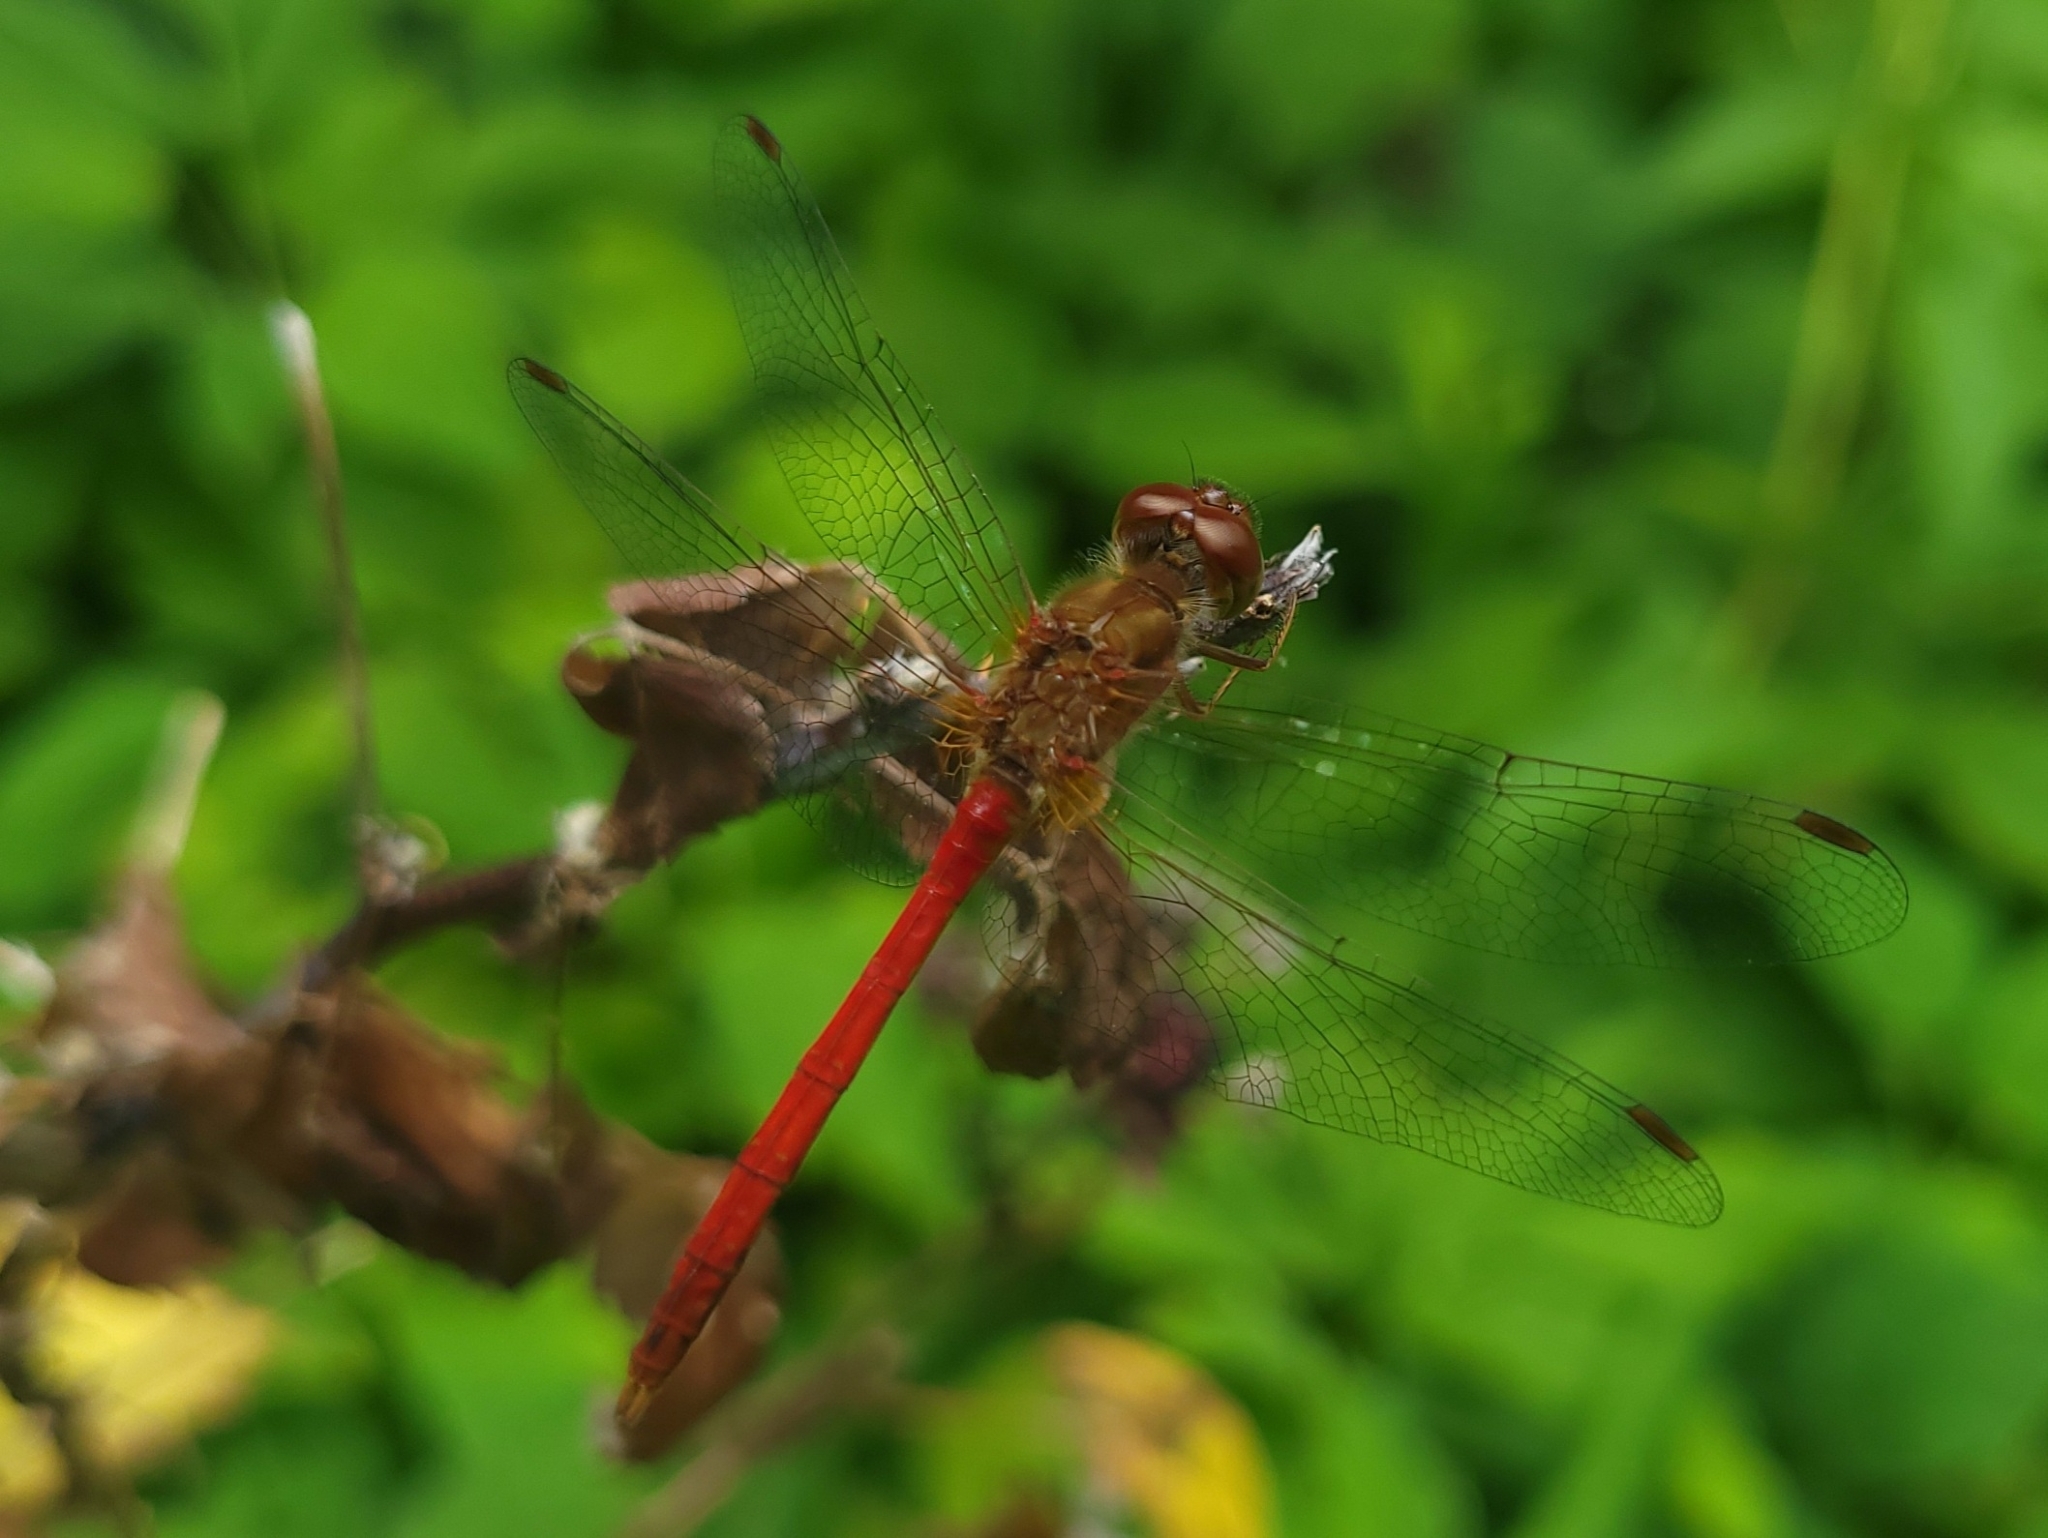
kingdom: Animalia
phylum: Arthropoda
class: Insecta
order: Odonata
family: Libellulidae
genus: Sympetrum
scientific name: Sympetrum vicinum
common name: Autumn meadowhawk
